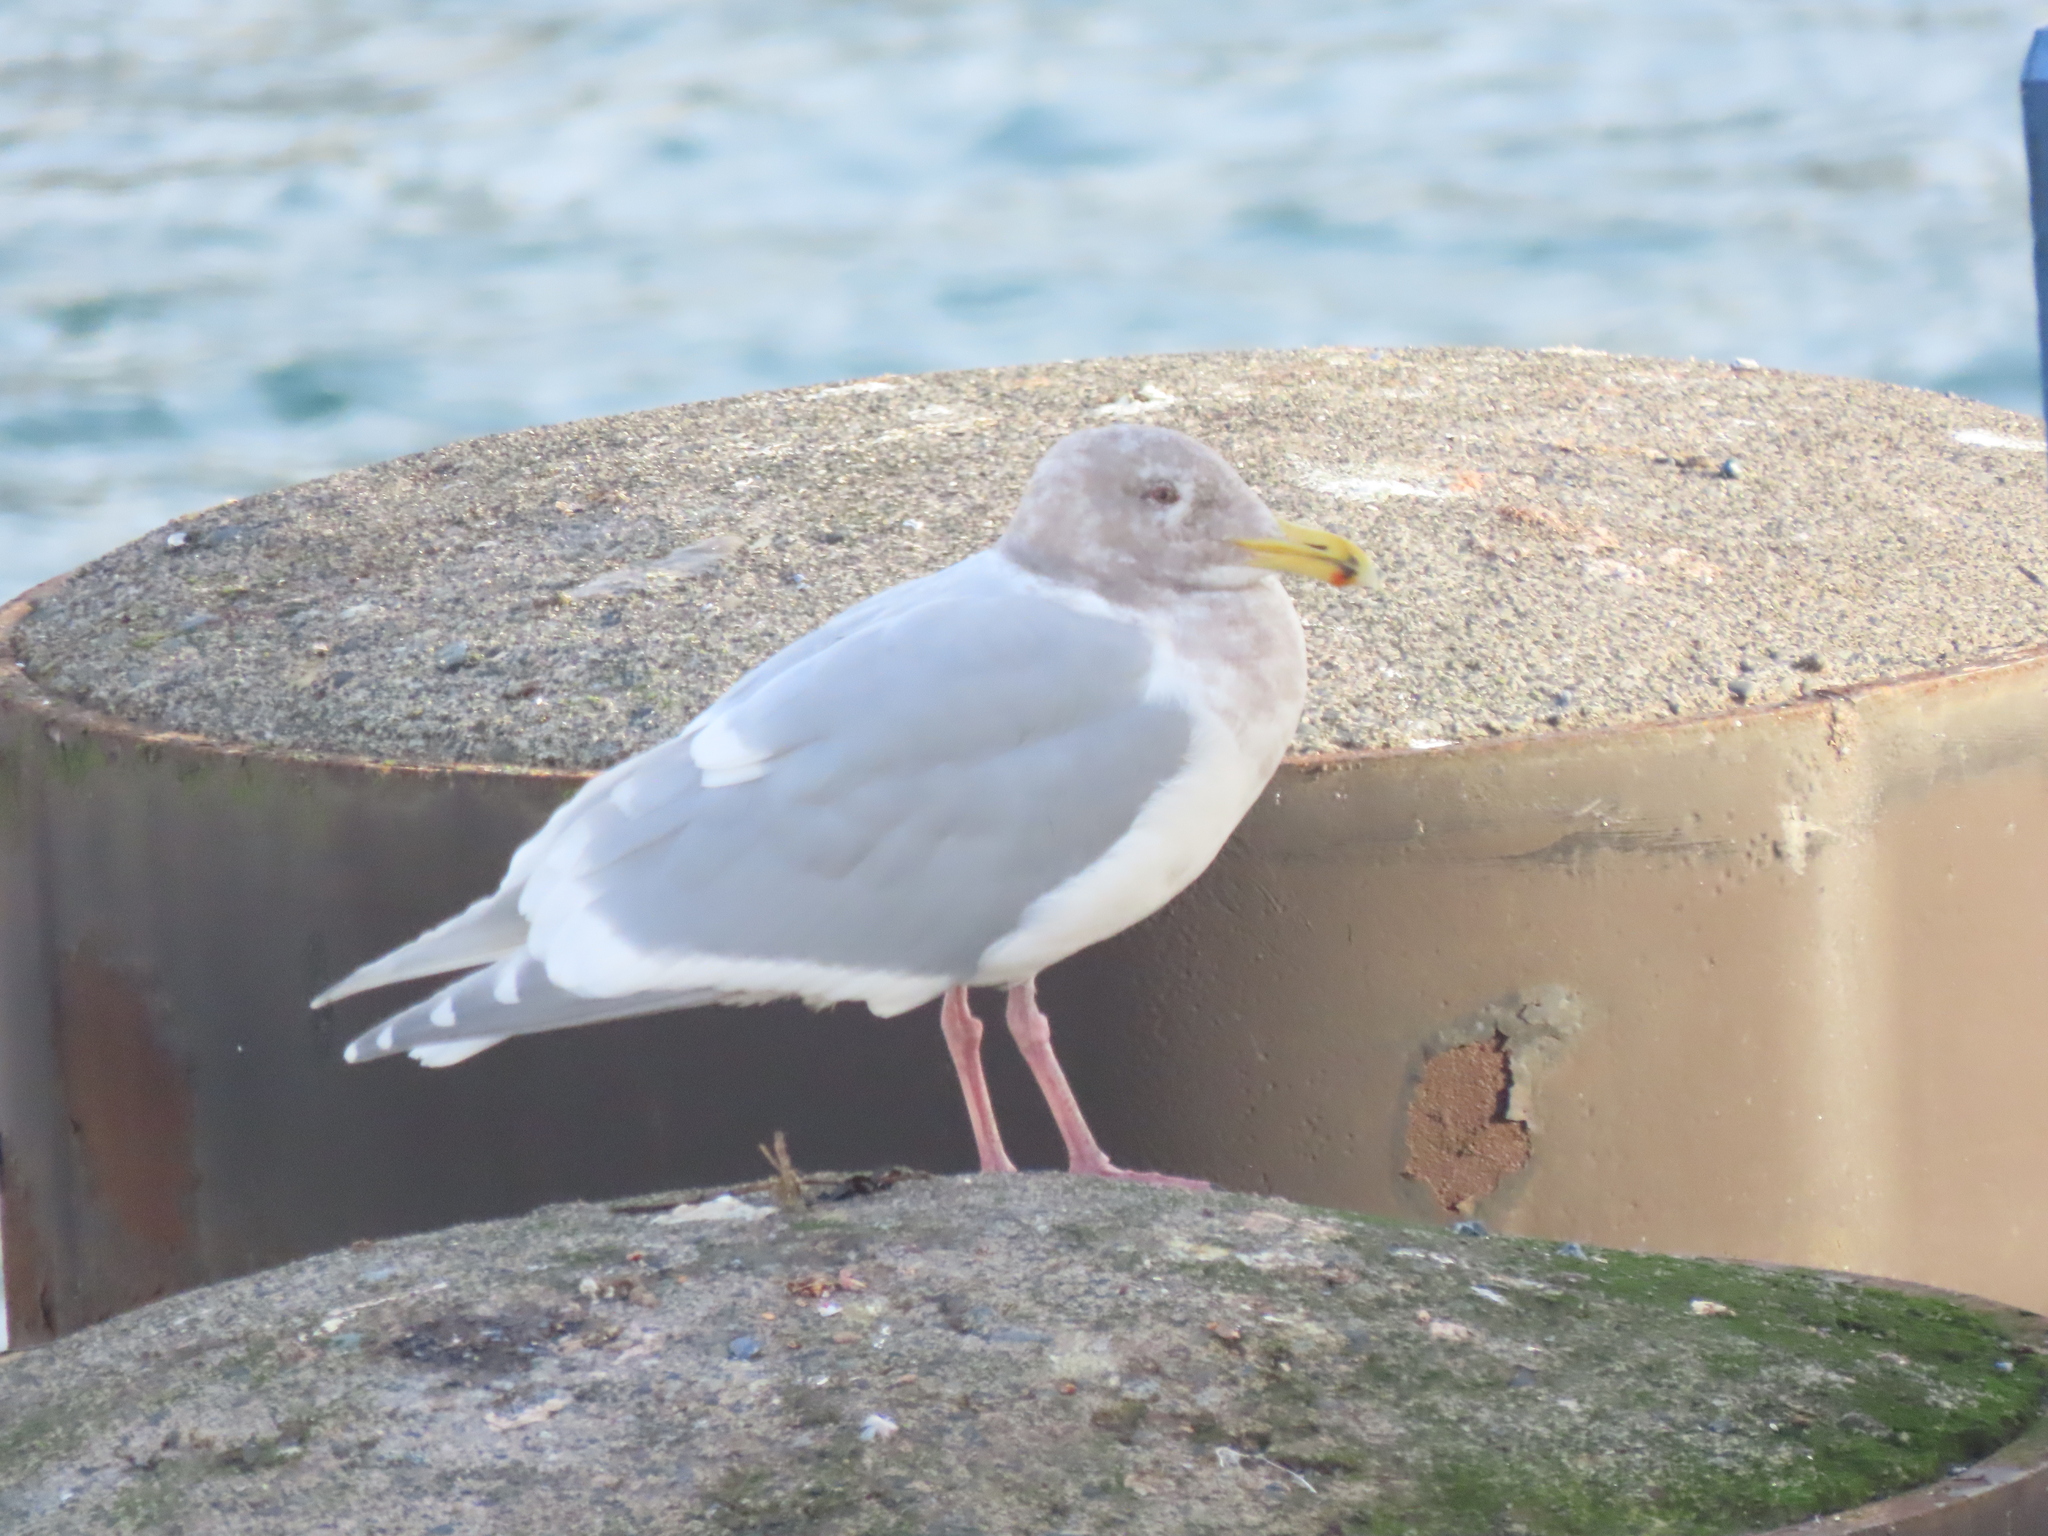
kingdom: Animalia
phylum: Chordata
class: Aves
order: Charadriiformes
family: Laridae
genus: Larus
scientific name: Larus glaucescens
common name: Glaucous-winged gull
